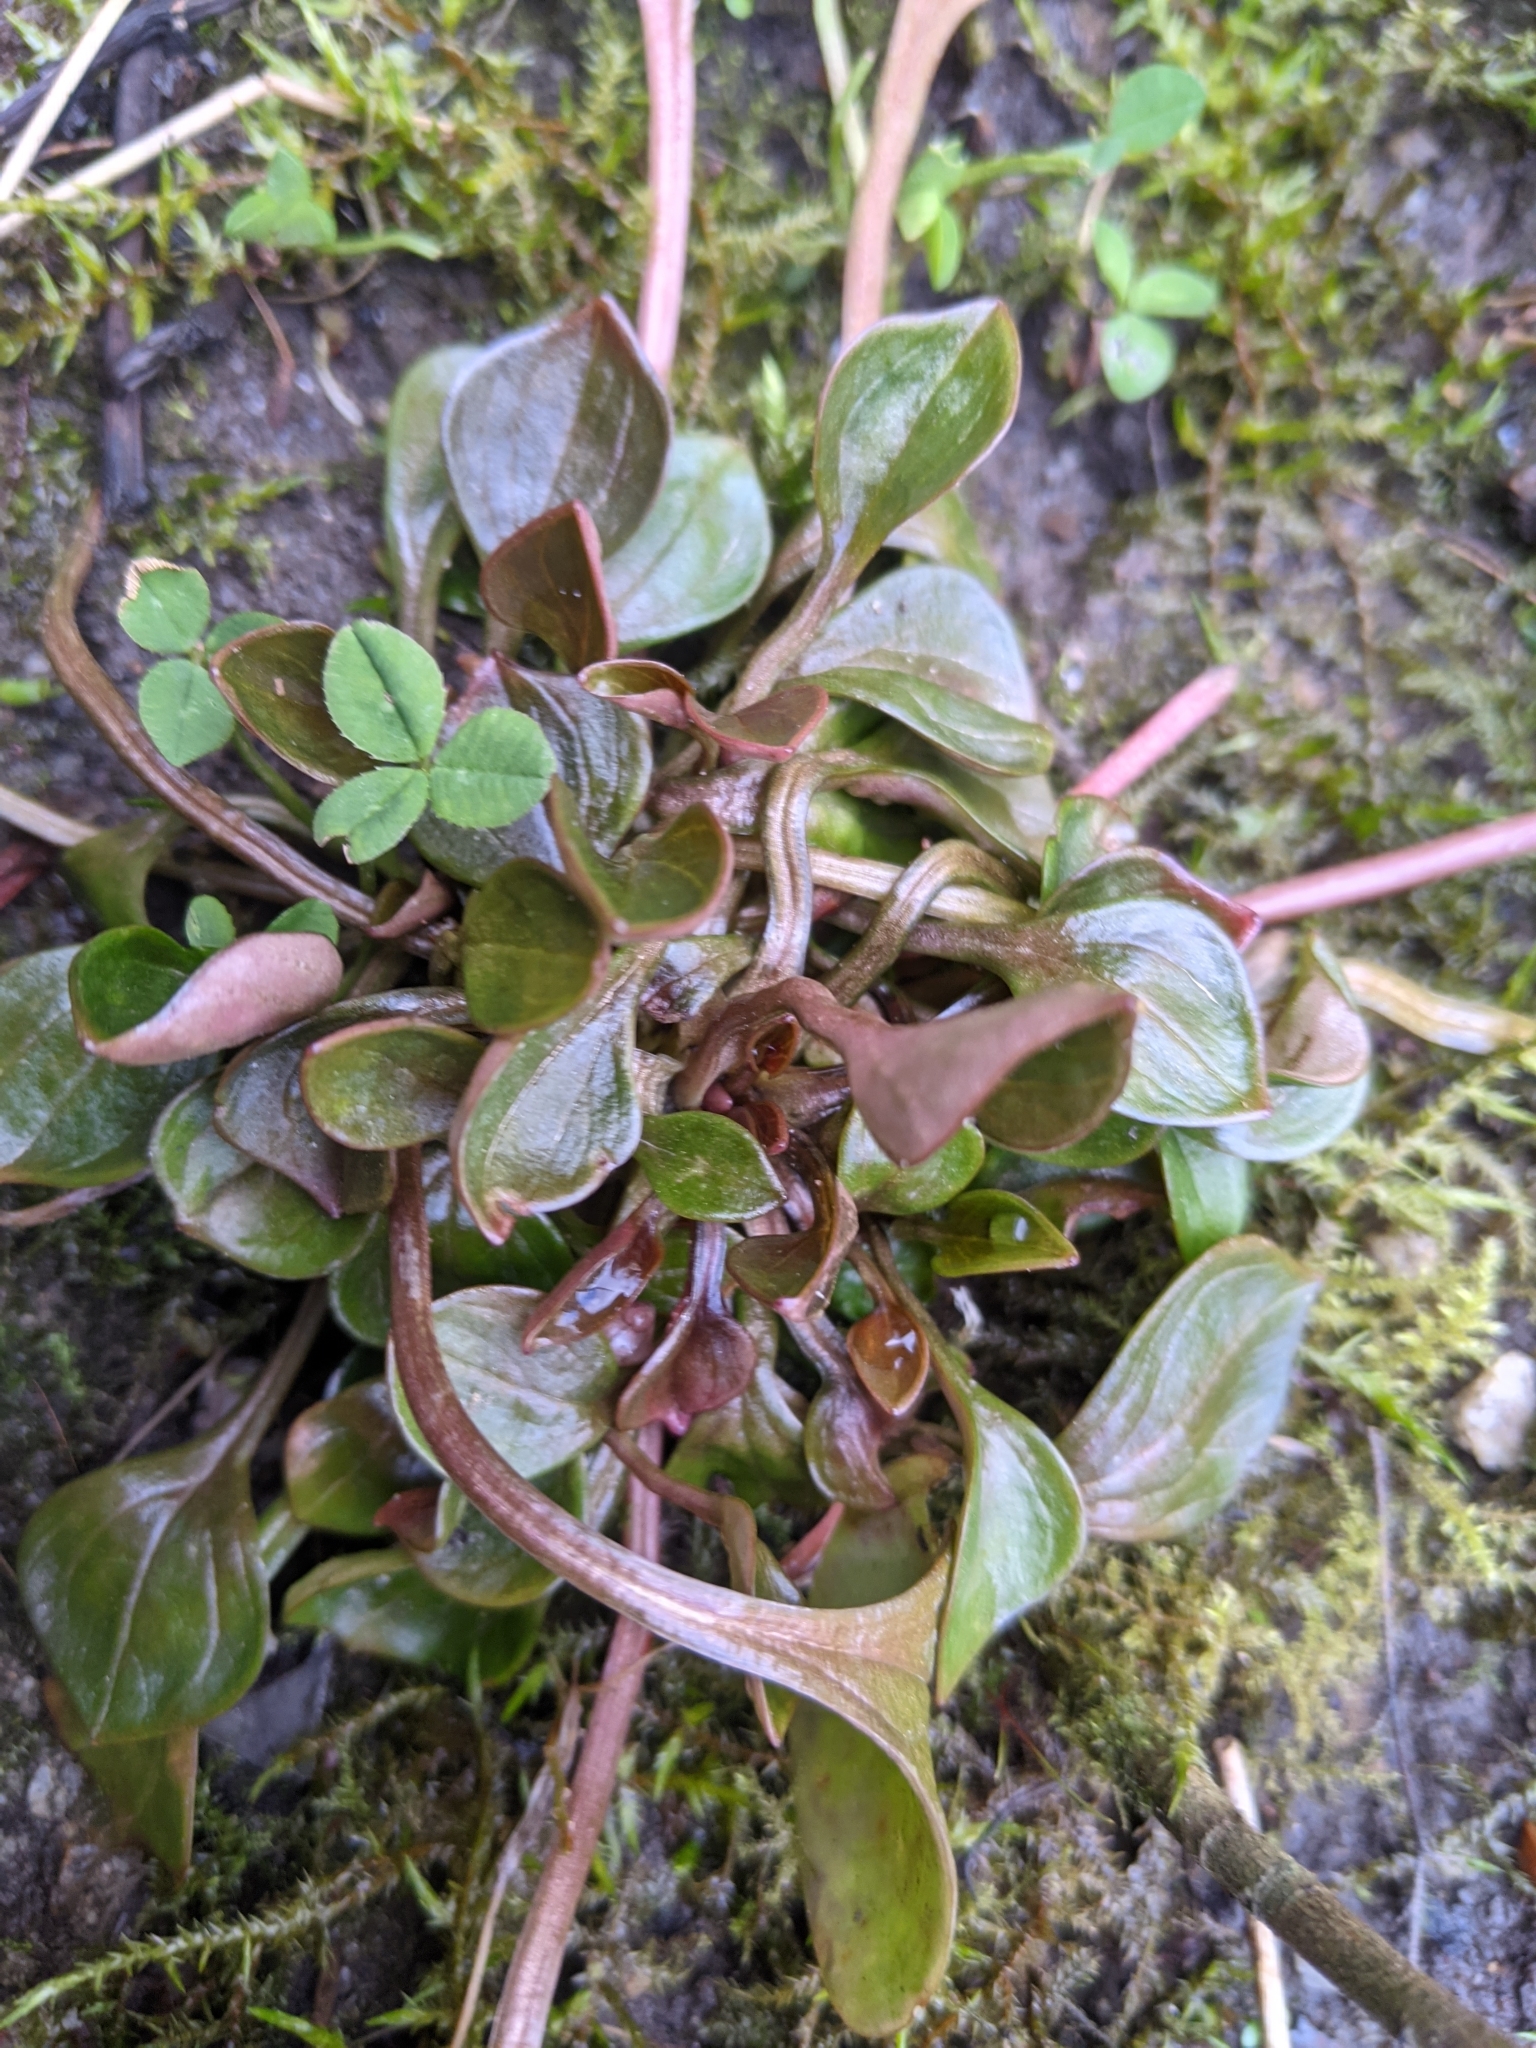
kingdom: Plantae
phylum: Tracheophyta
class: Magnoliopsida
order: Caryophyllales
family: Montiaceae
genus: Claytonia
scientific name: Claytonia sibirica
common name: Pink purslane
